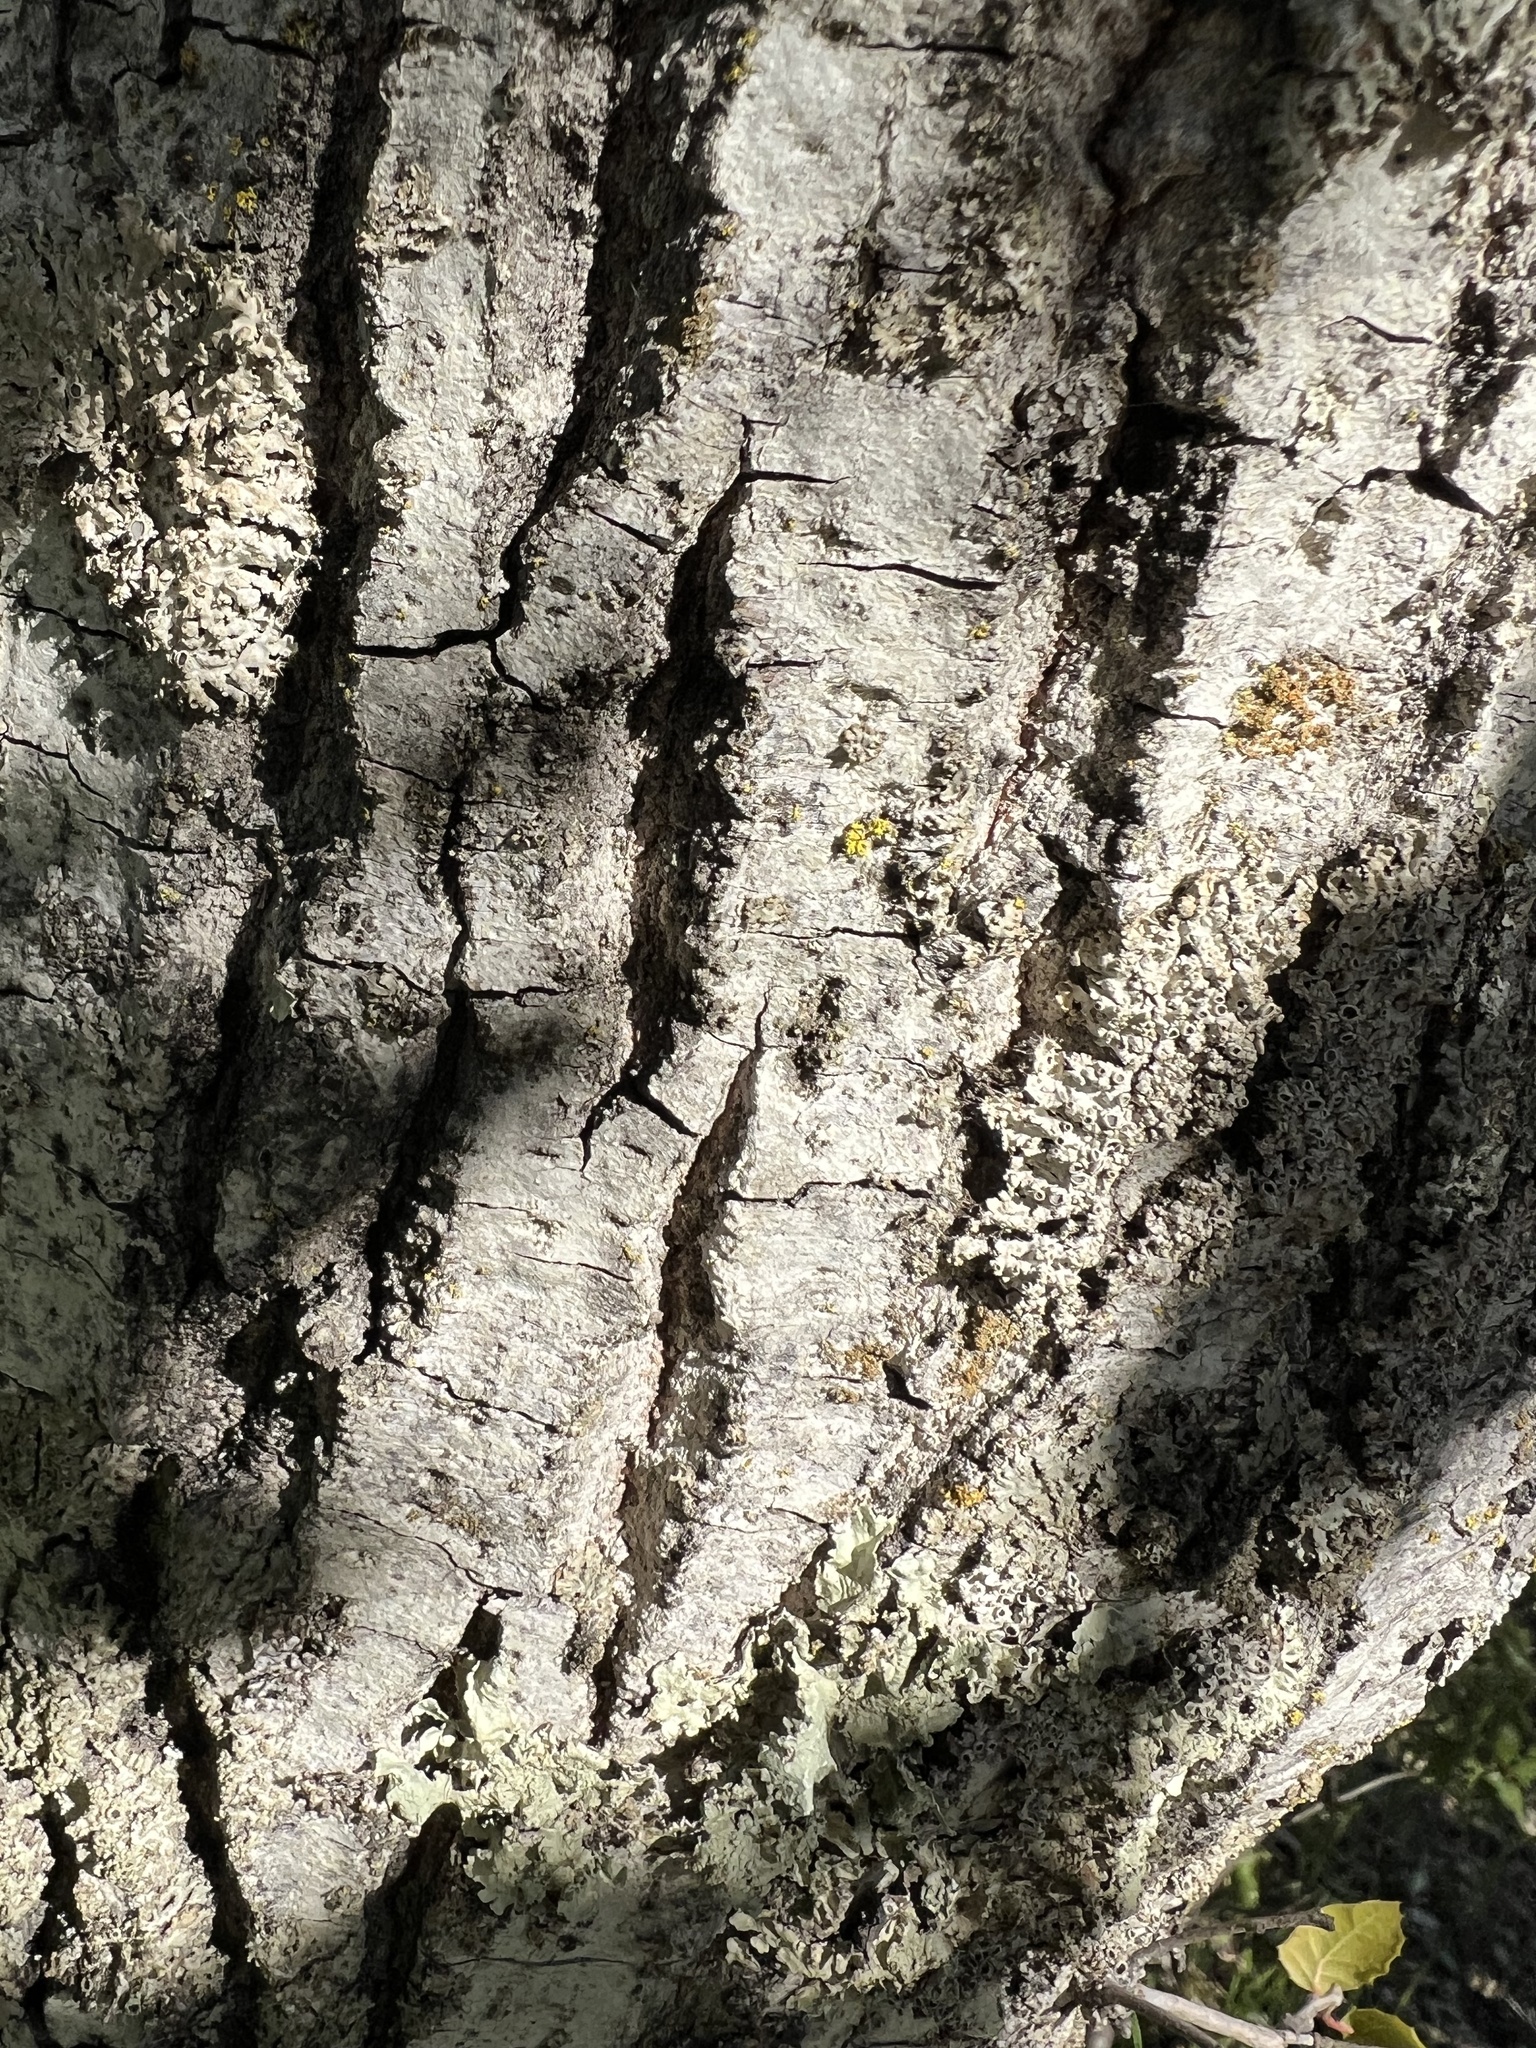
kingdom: Plantae
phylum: Tracheophyta
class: Magnoliopsida
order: Fagales
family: Fagaceae
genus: Quercus
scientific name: Quercus agrifolia
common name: California live oak
